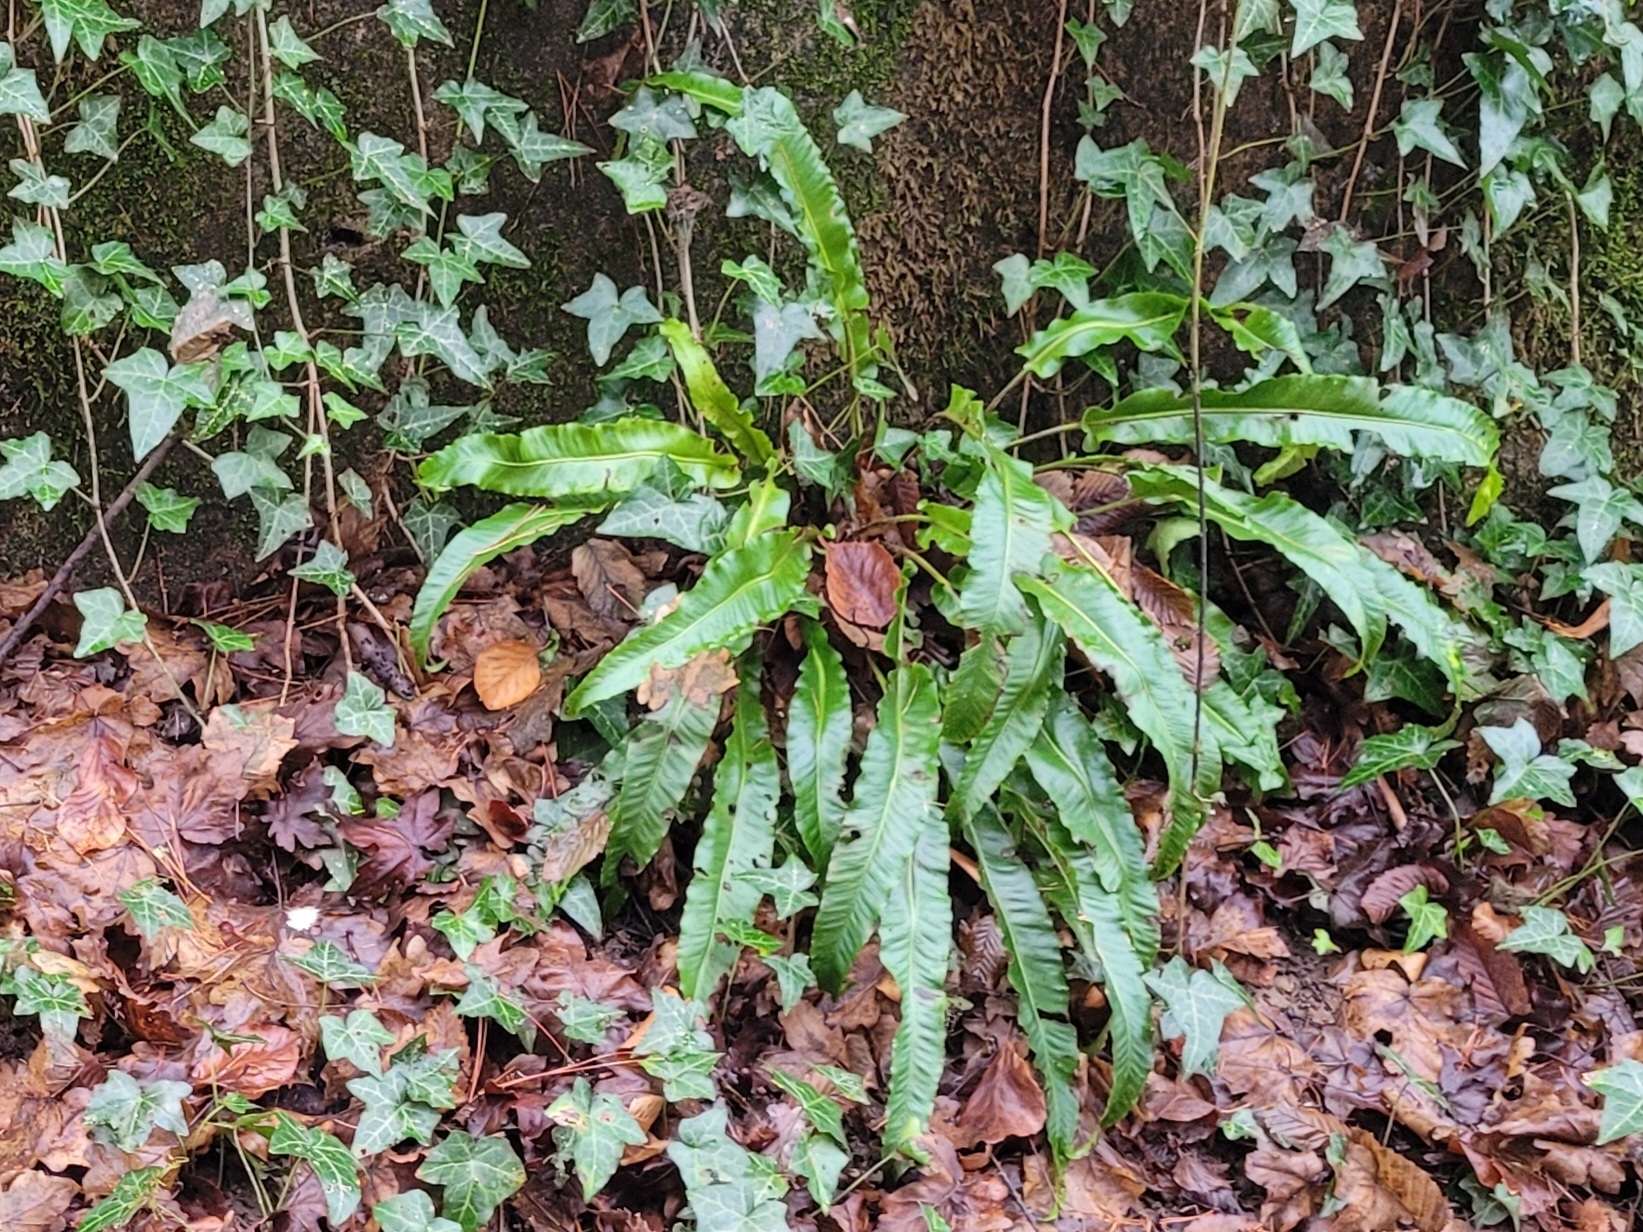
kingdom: Plantae
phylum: Tracheophyta
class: Polypodiopsida
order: Polypodiales
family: Aspleniaceae
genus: Asplenium
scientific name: Asplenium scolopendrium
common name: Hart's-tongue fern
